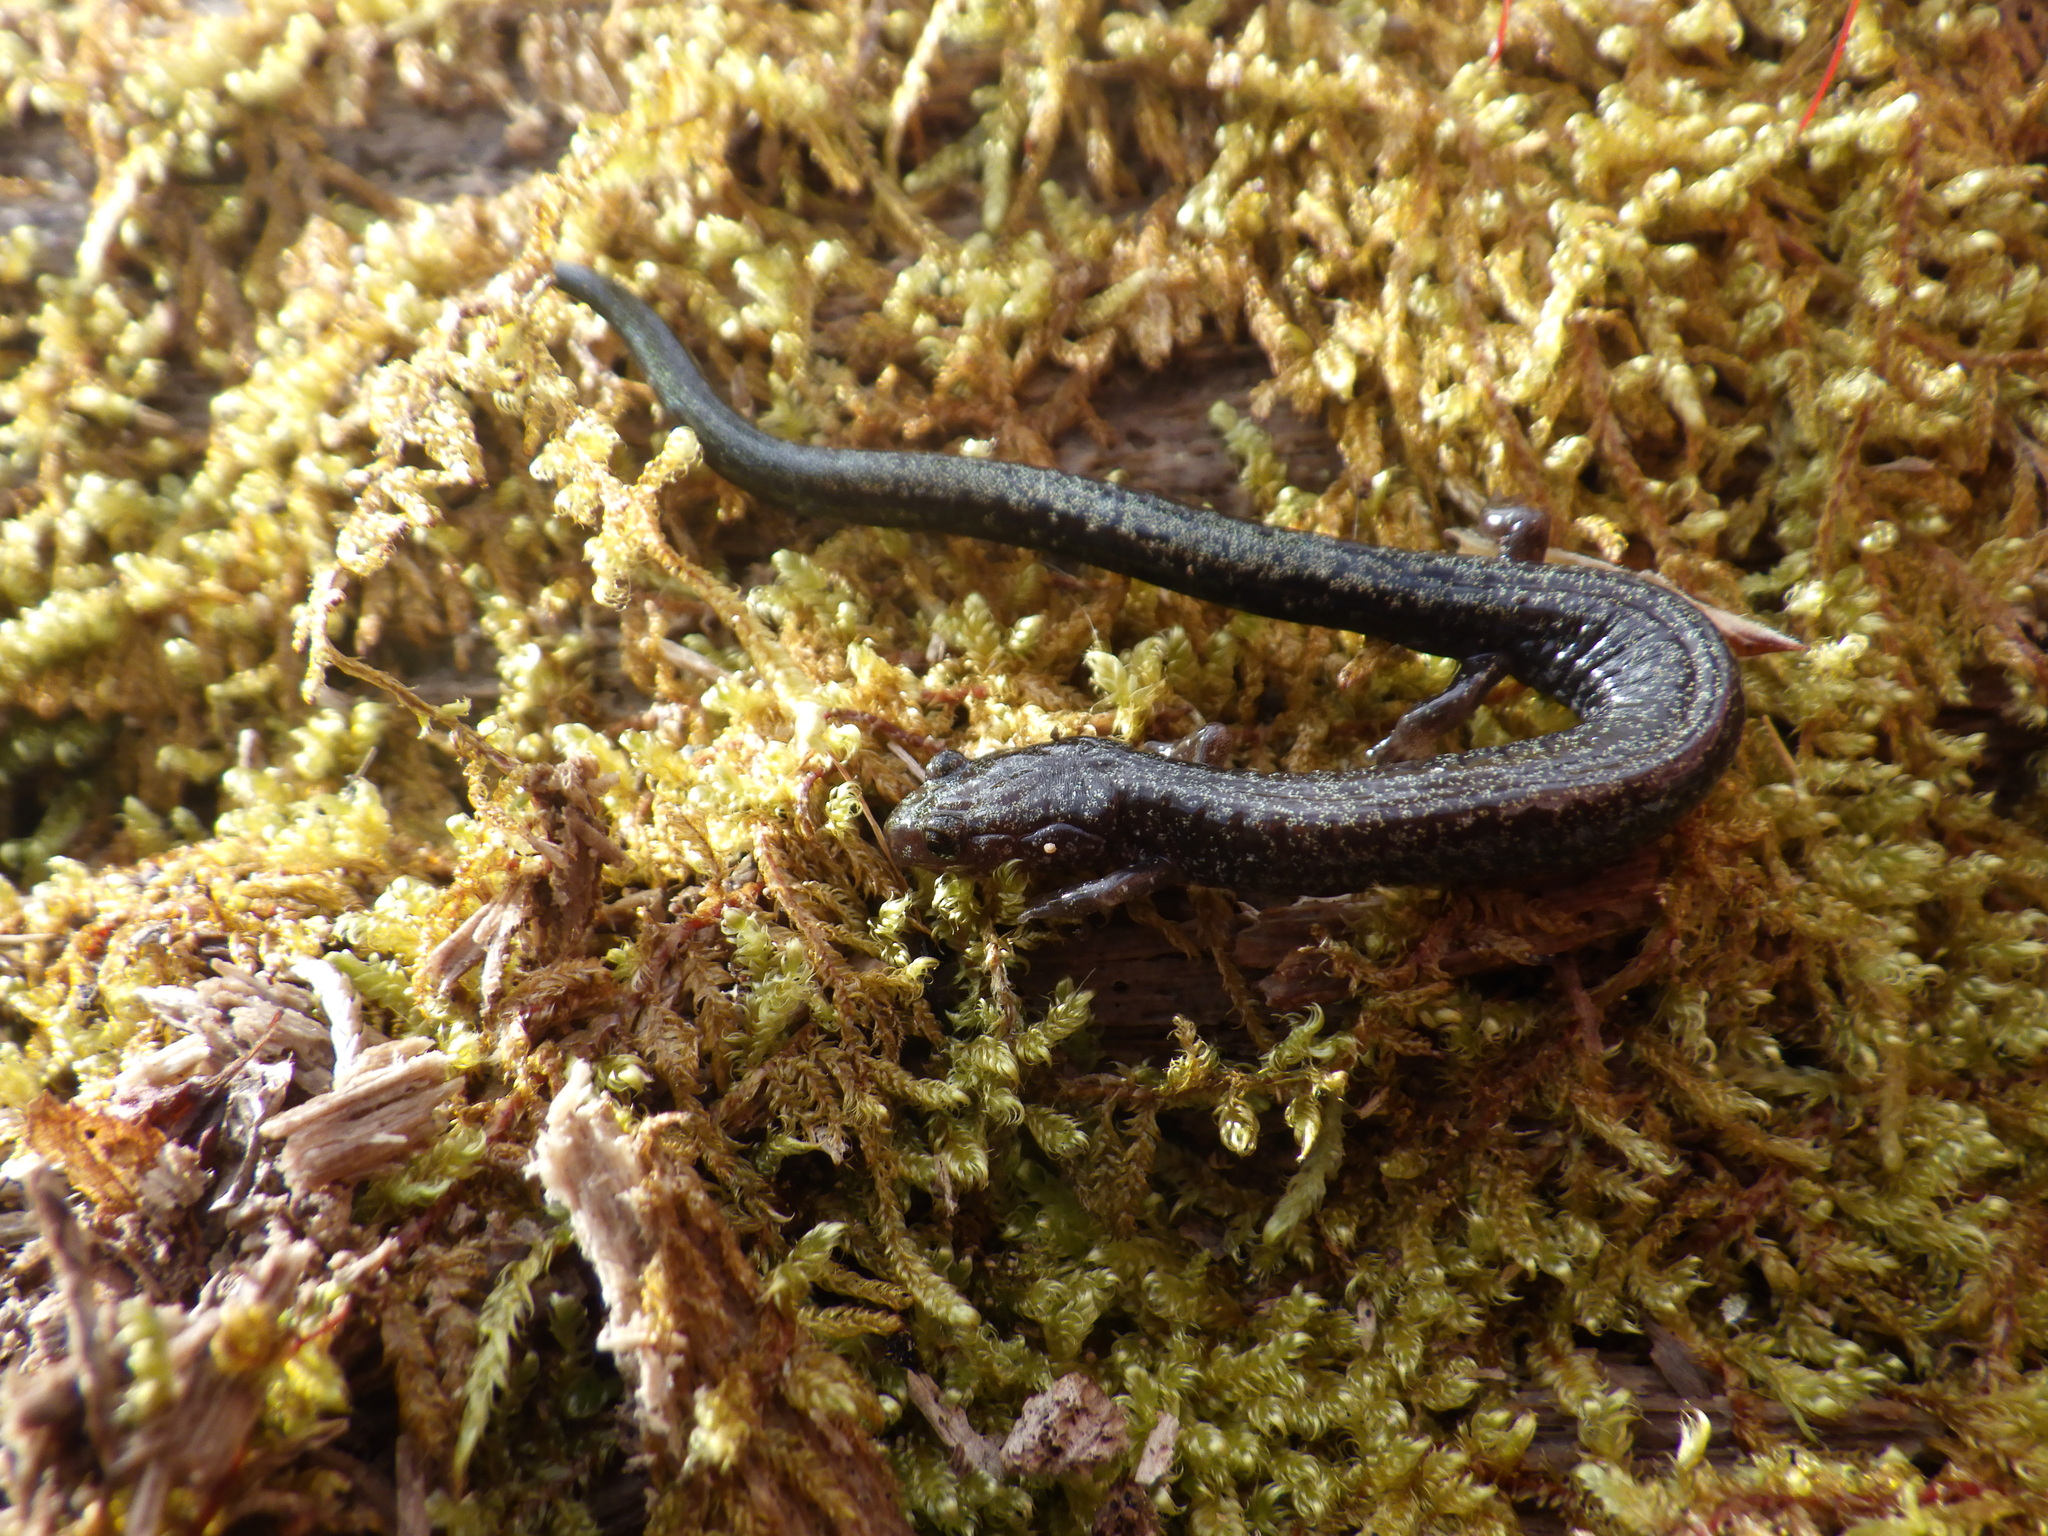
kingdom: Animalia
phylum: Chordata
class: Amphibia
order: Caudata
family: Plethodontidae
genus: Plethodon
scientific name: Plethodon richmondi
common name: Ravine salamander
